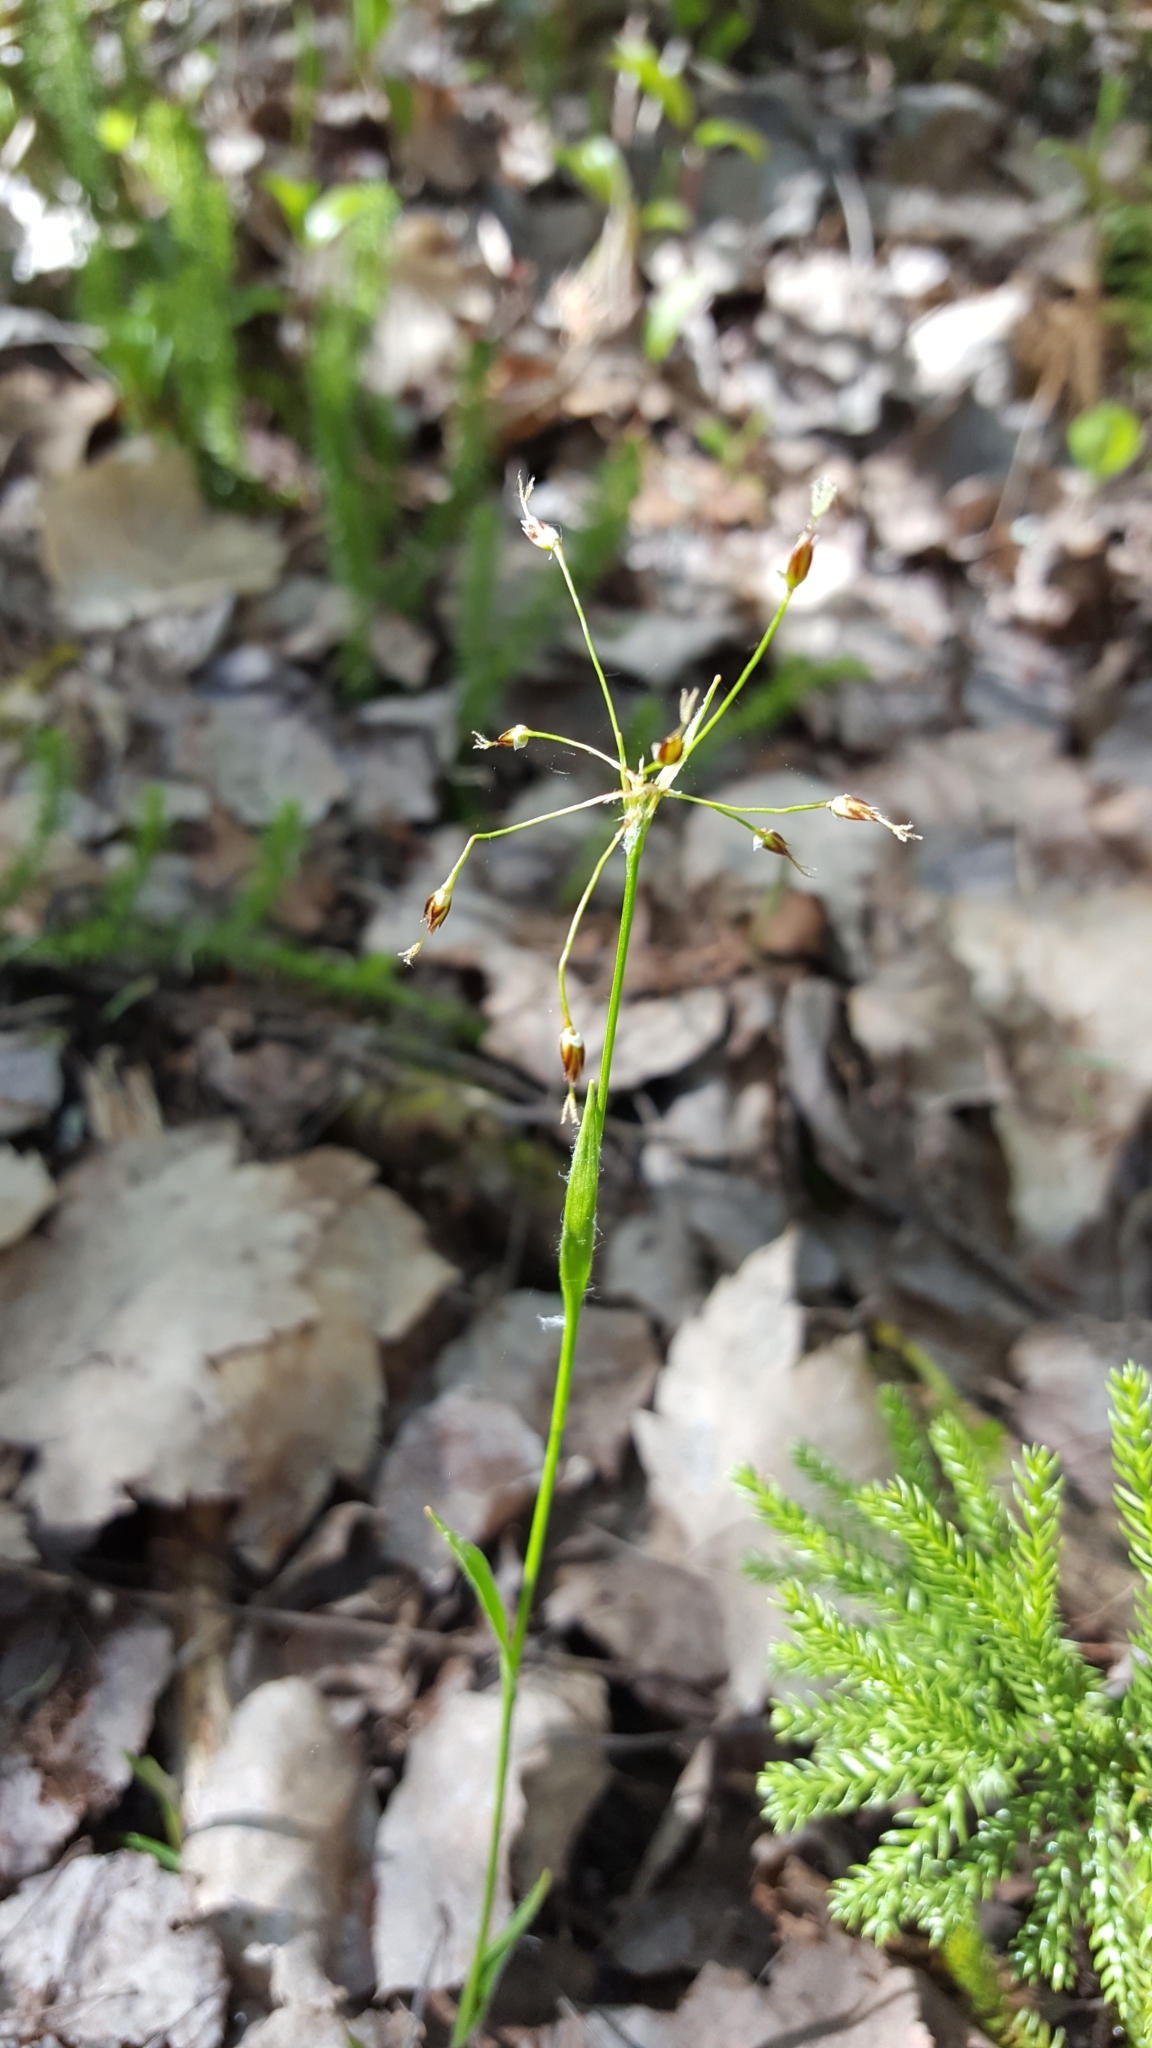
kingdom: Plantae
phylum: Tracheophyta
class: Liliopsida
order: Poales
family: Juncaceae
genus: Luzula
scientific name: Luzula acuminata
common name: Hairy woodrush
